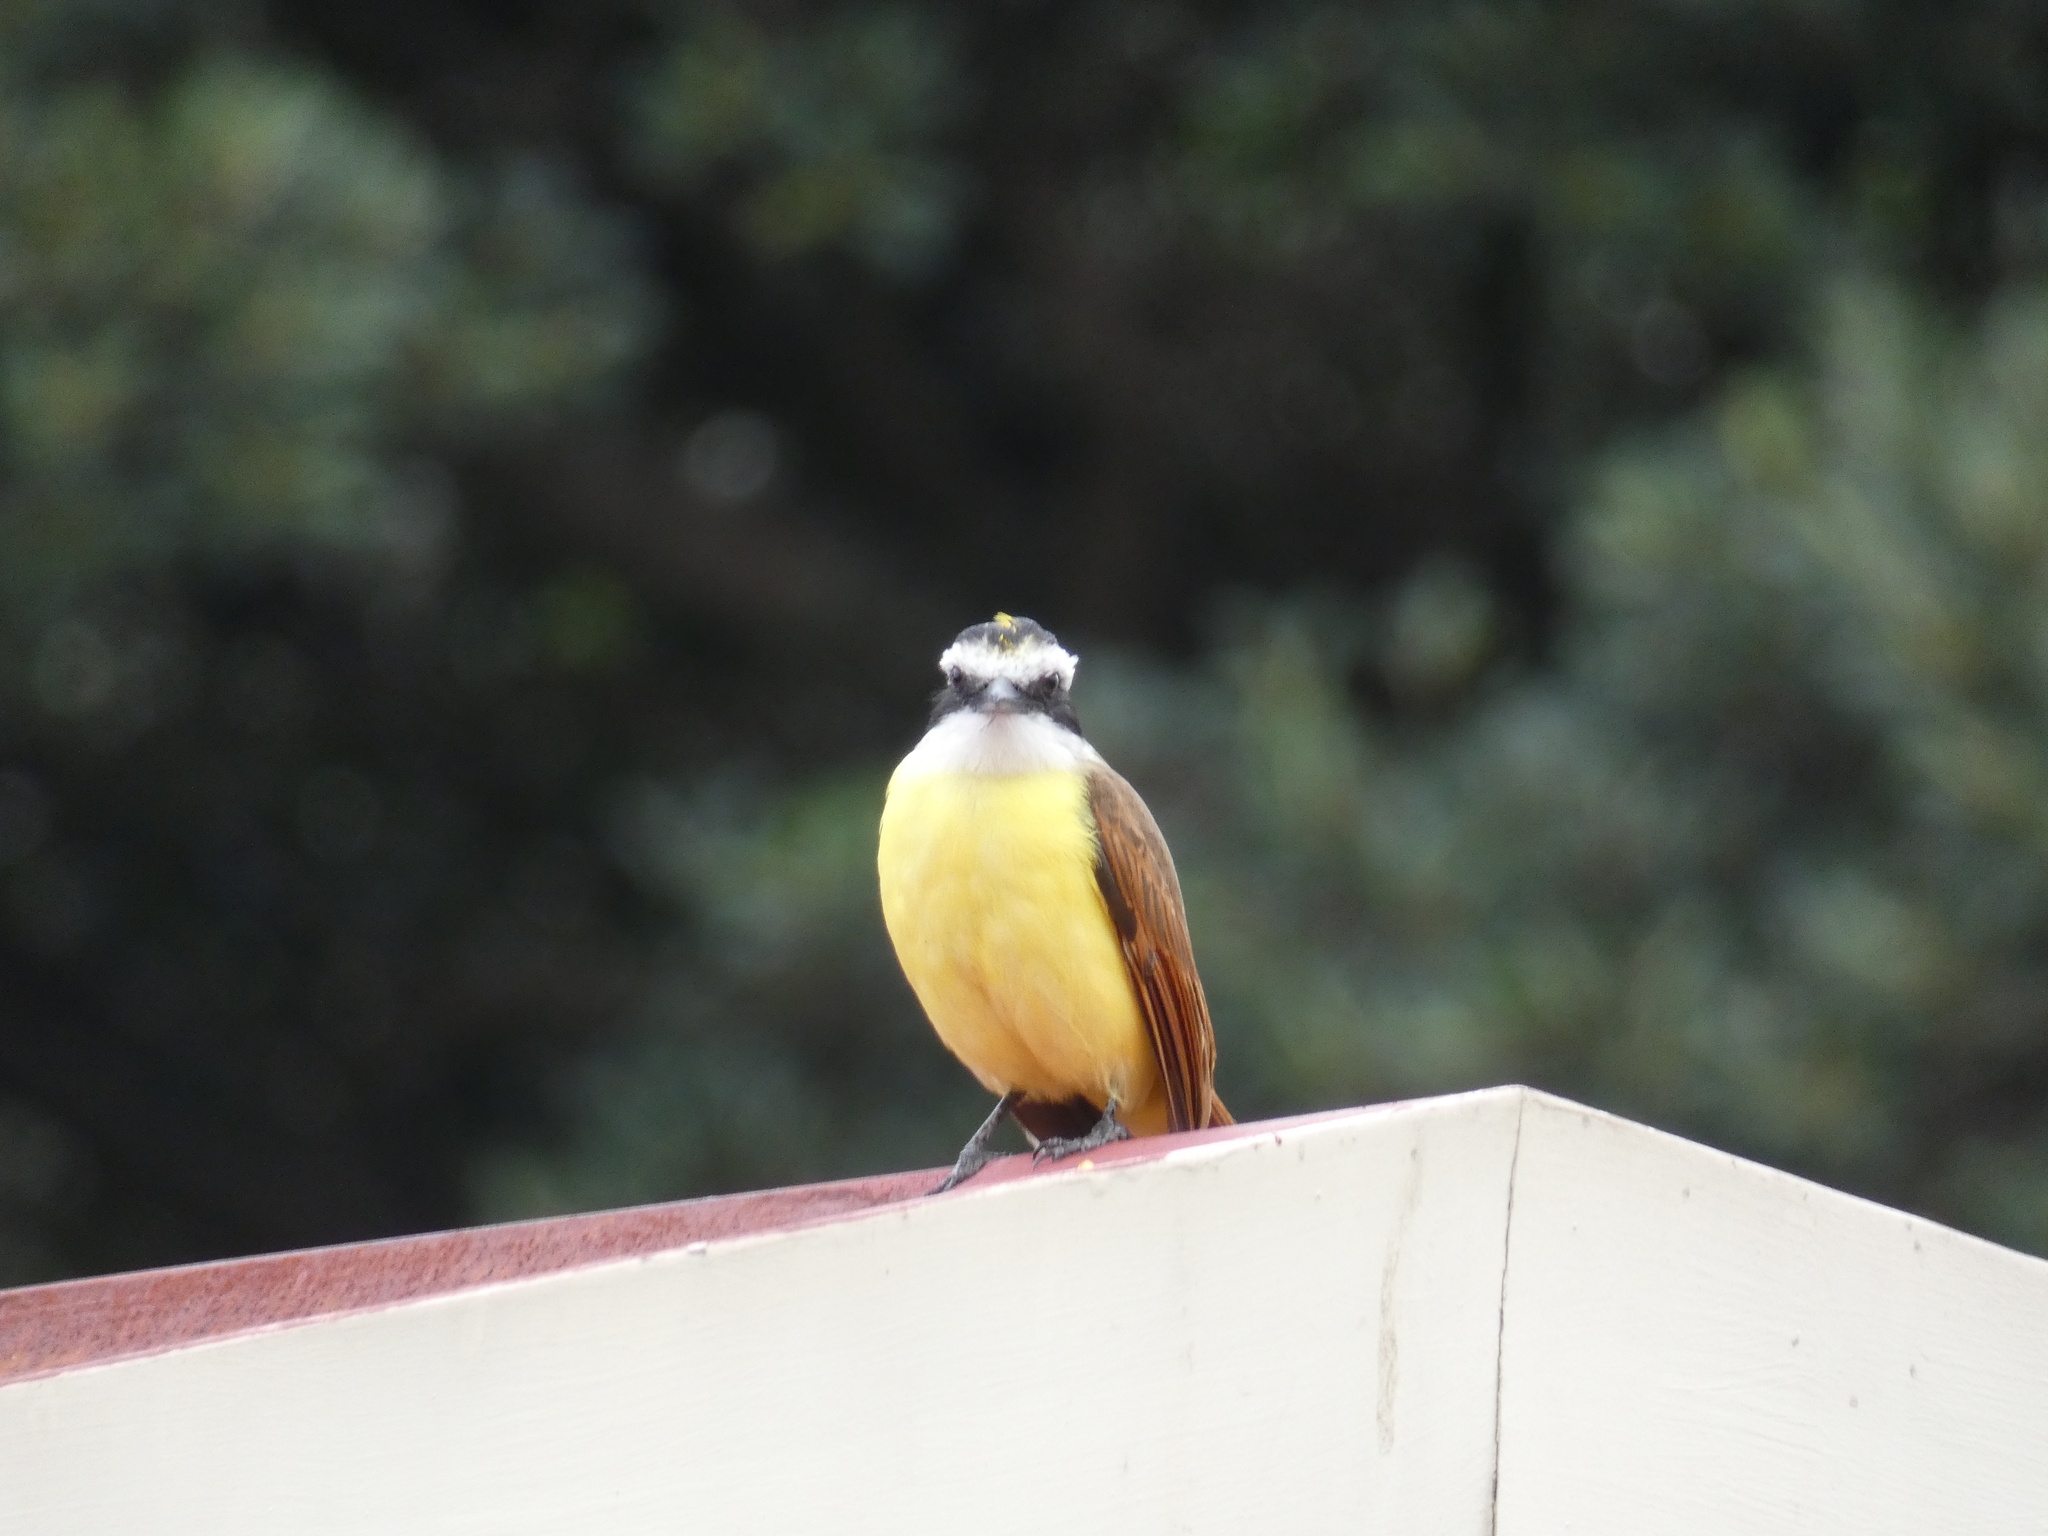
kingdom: Animalia
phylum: Chordata
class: Aves
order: Passeriformes
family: Tyrannidae
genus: Pitangus
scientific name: Pitangus sulphuratus
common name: Great kiskadee
